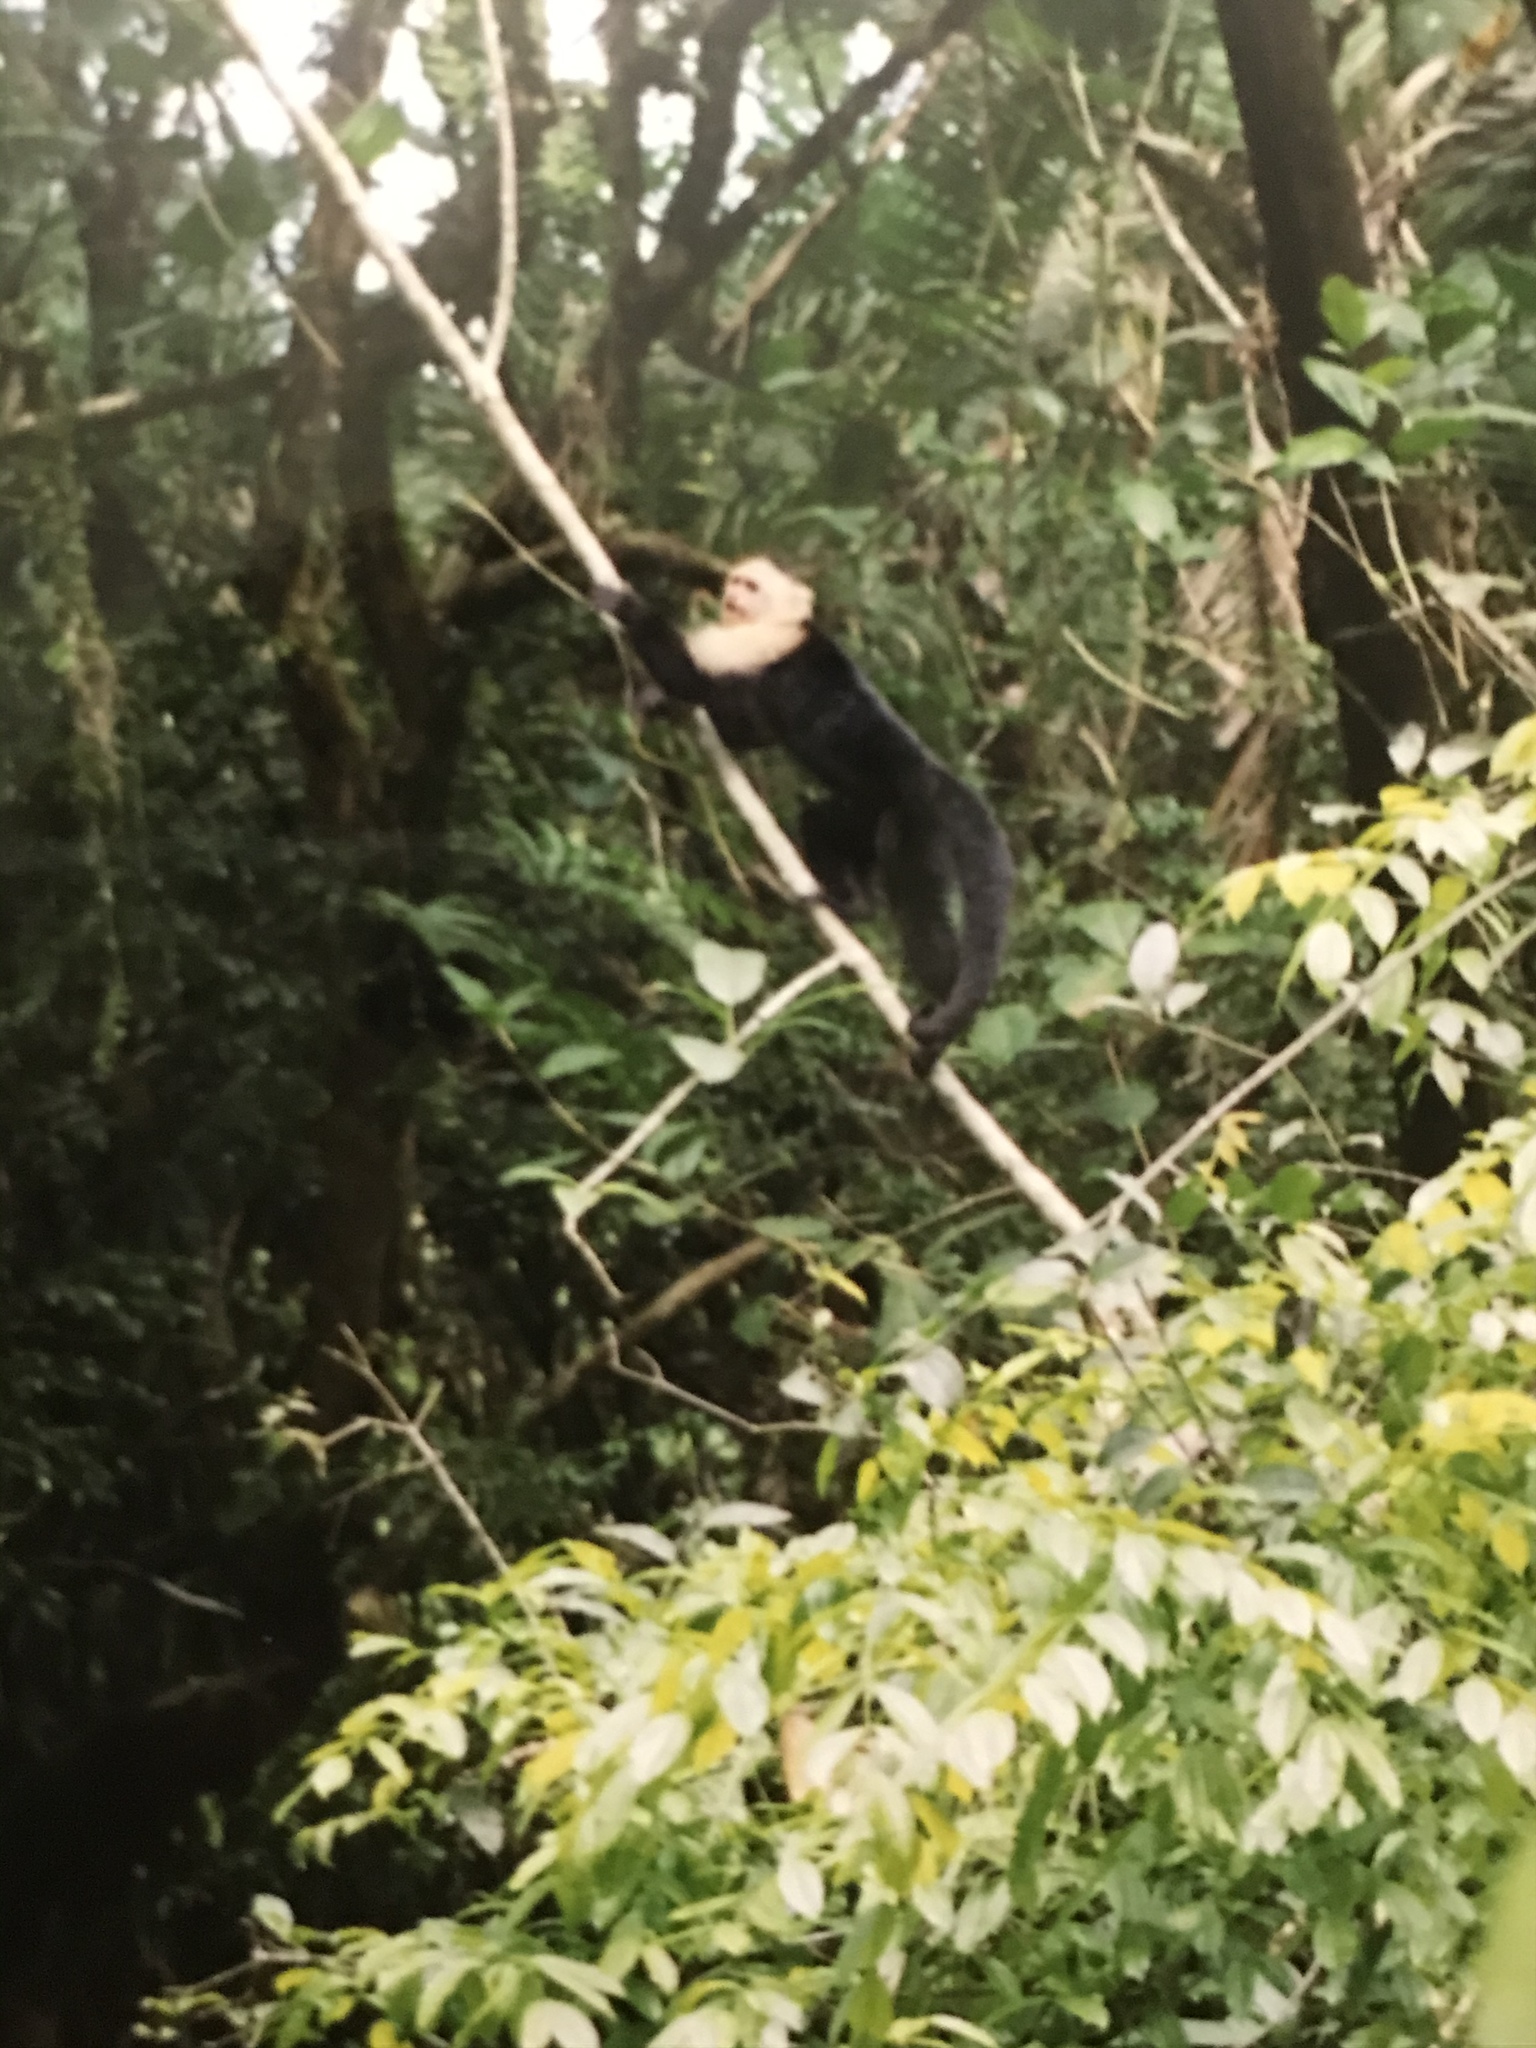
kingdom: Animalia
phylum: Chordata
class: Mammalia
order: Primates
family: Cebidae
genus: Cebus
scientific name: Cebus imitator
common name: Panamanian white-faced capuchin
